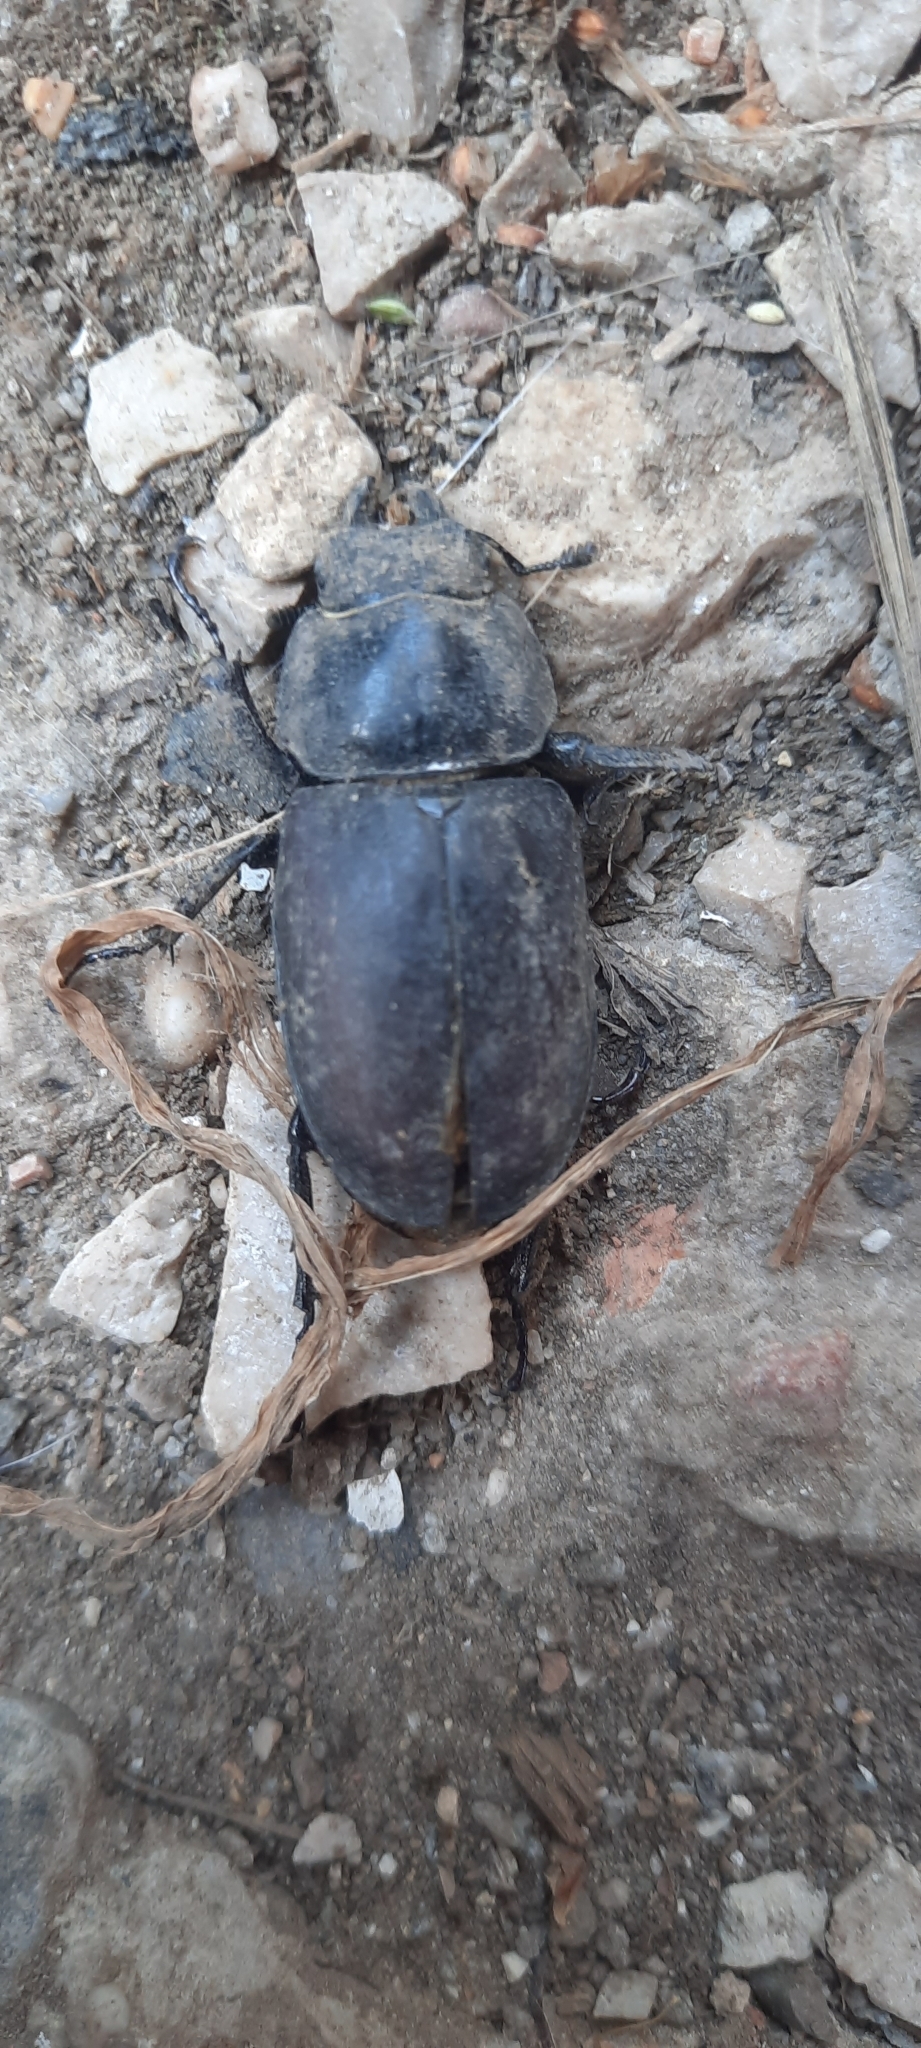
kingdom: Animalia
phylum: Arthropoda
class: Insecta
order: Coleoptera
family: Lucanidae
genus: Lucanus
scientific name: Lucanus cervus
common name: Stag beetle
